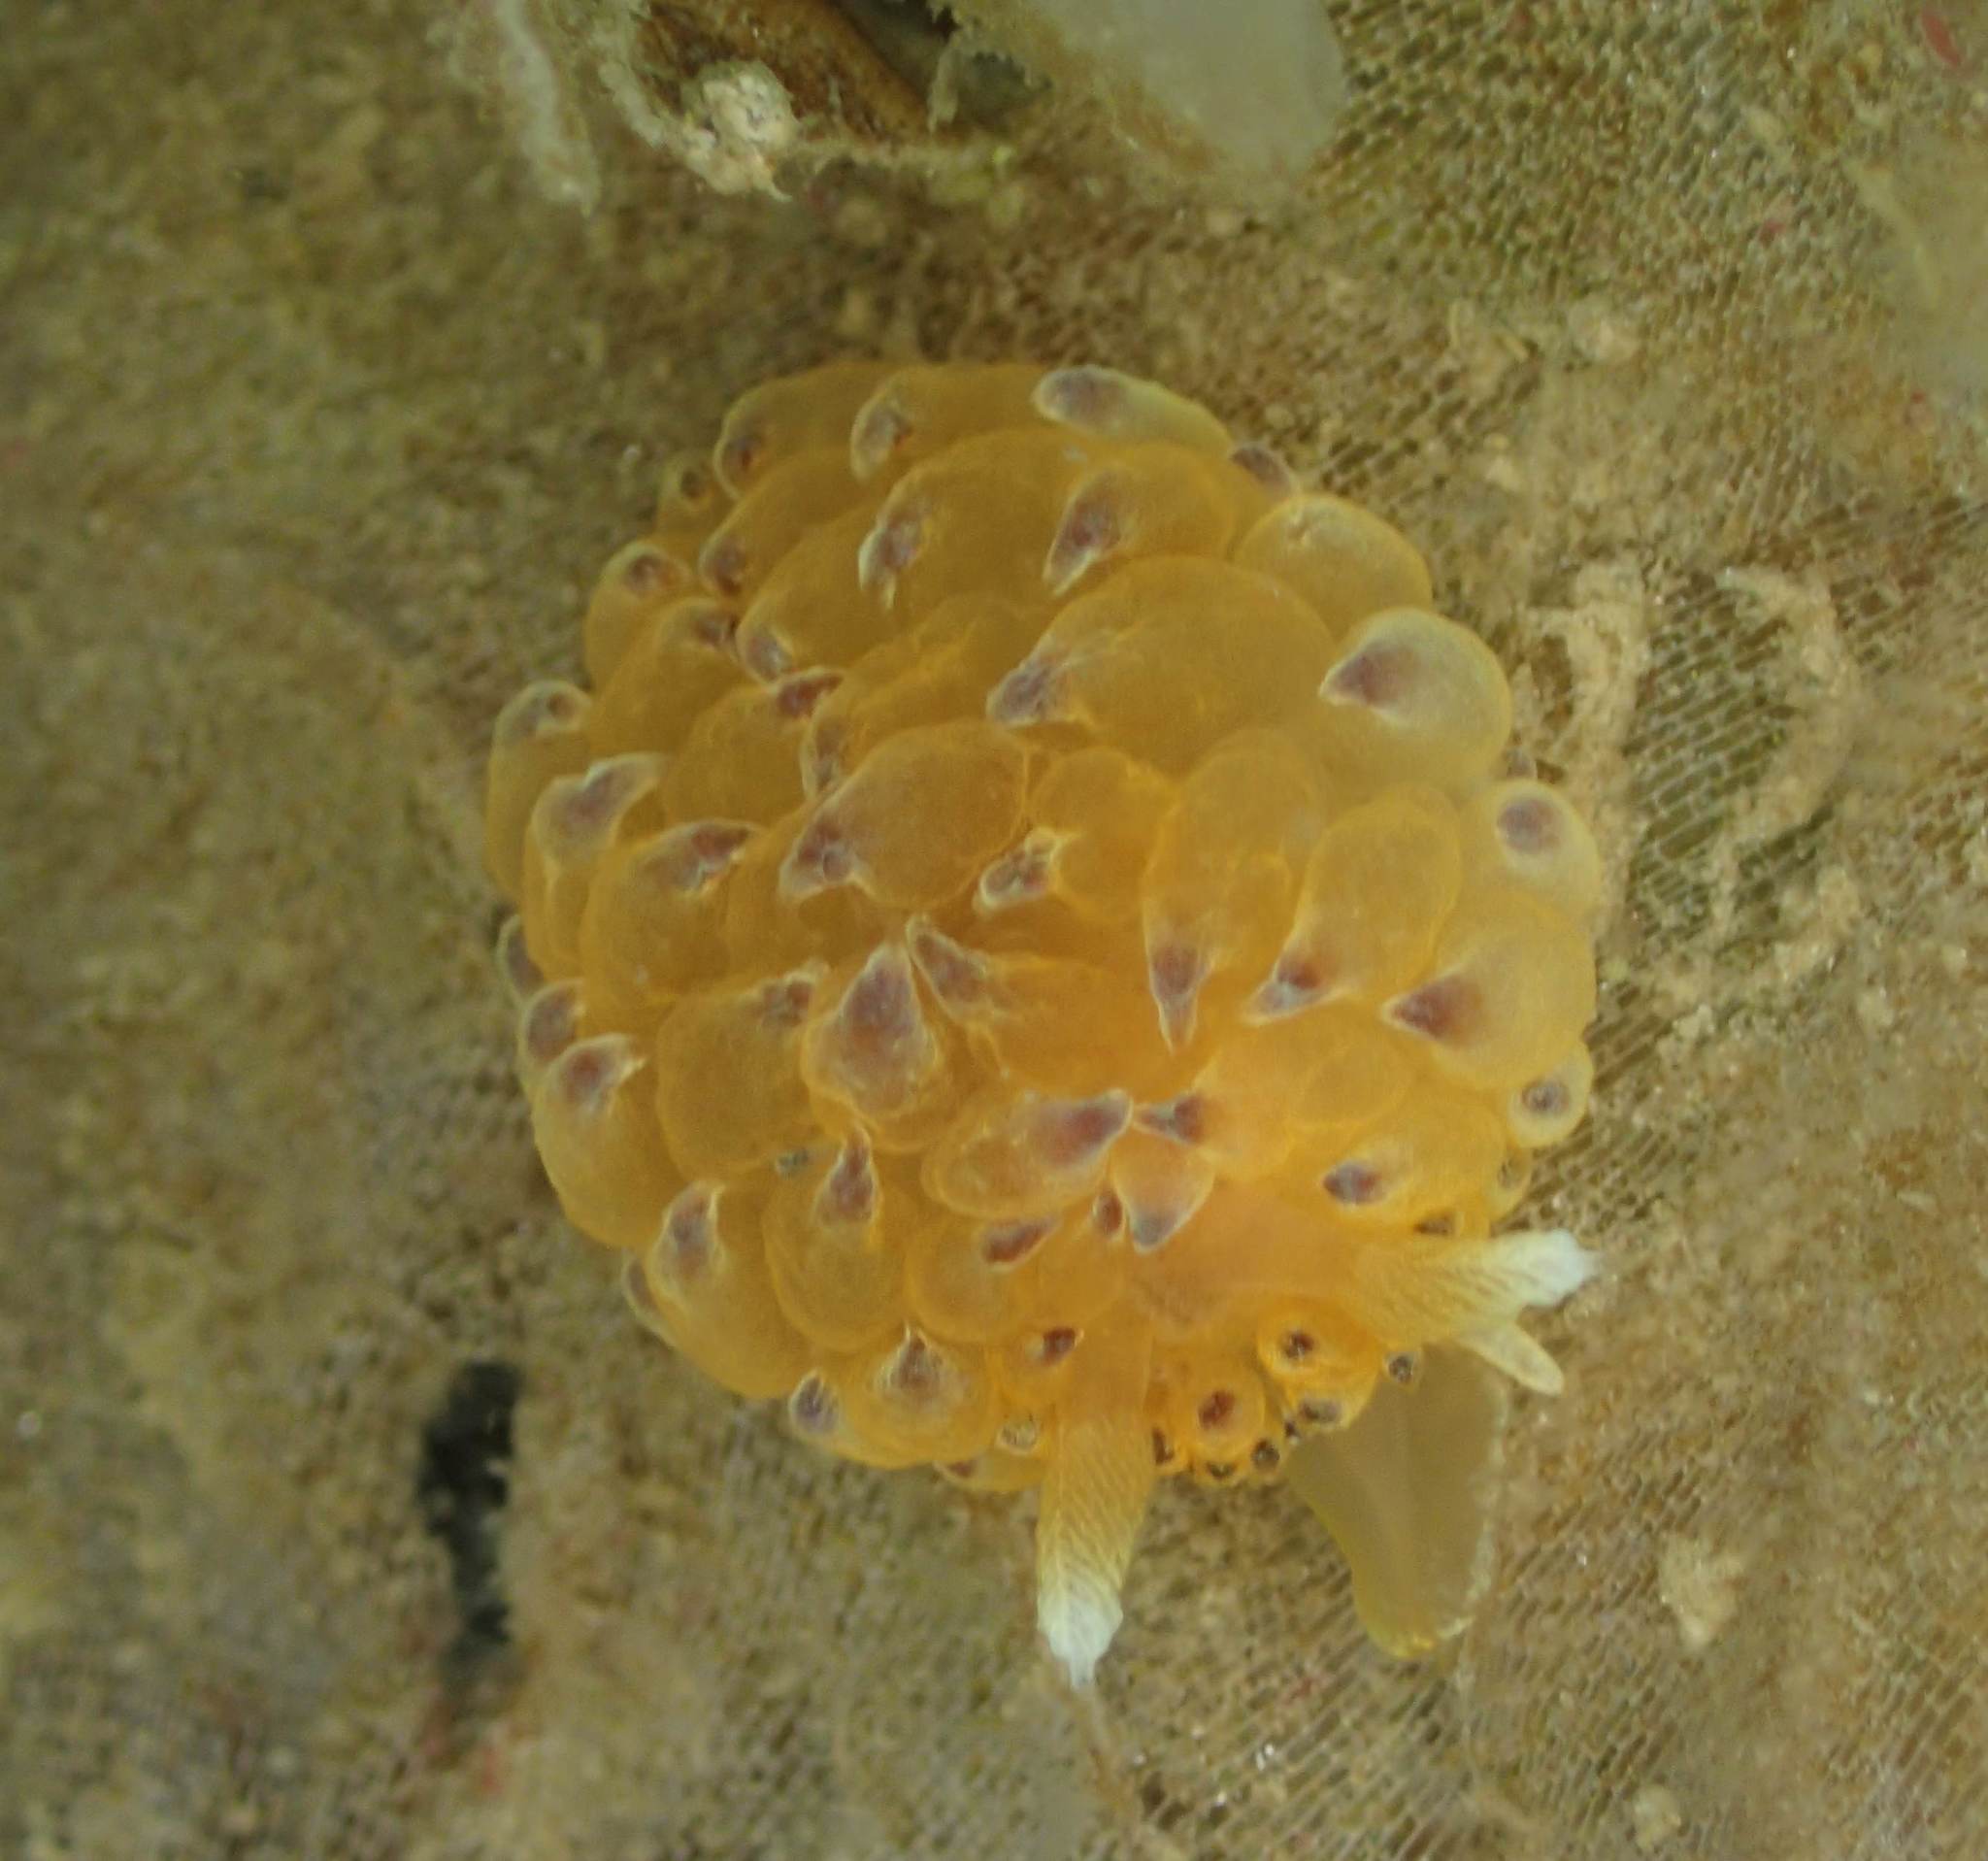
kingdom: Animalia
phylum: Mollusca
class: Gastropoda
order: Nudibranchia
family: Janolidae
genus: Galeojanolus
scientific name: Galeojanolus ionnae
